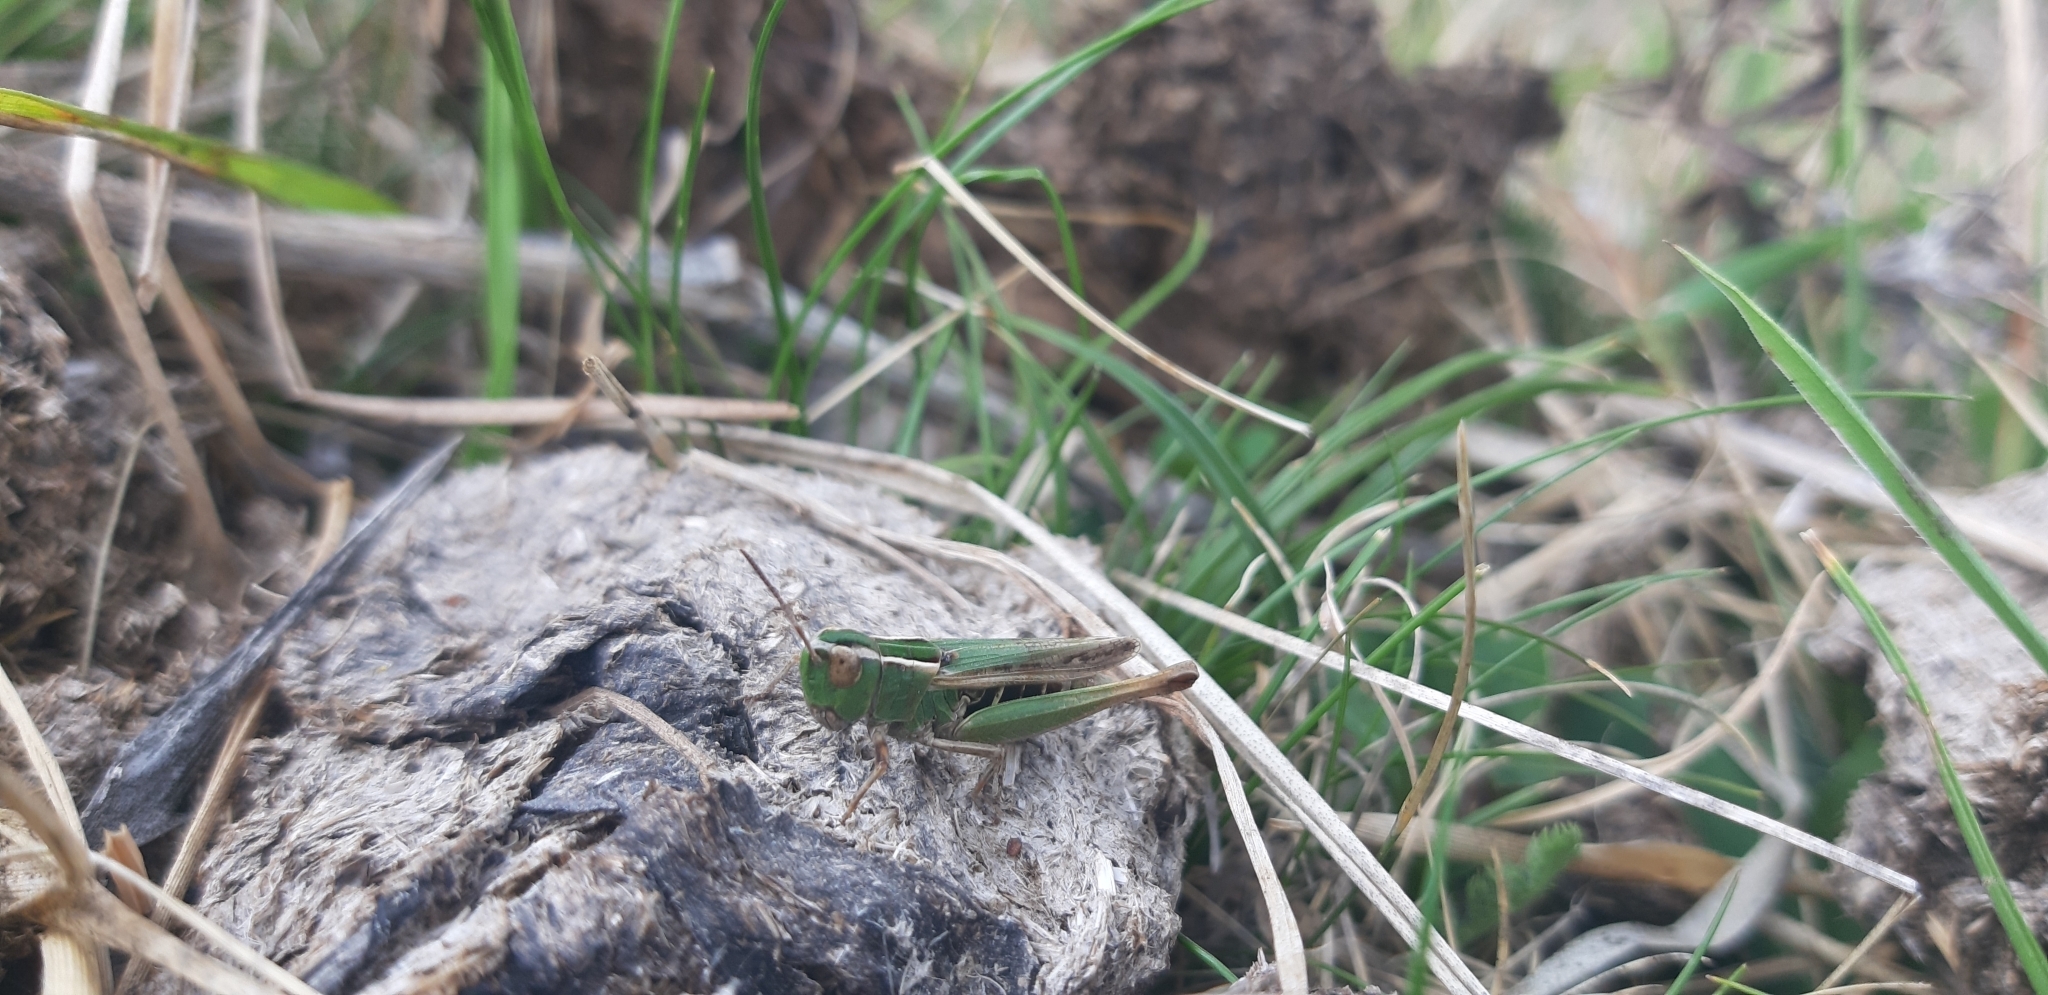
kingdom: Animalia
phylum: Arthropoda
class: Insecta
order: Orthoptera
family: Acrididae
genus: Omocestus
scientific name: Omocestus panteli
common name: Pantel's grasshopper
